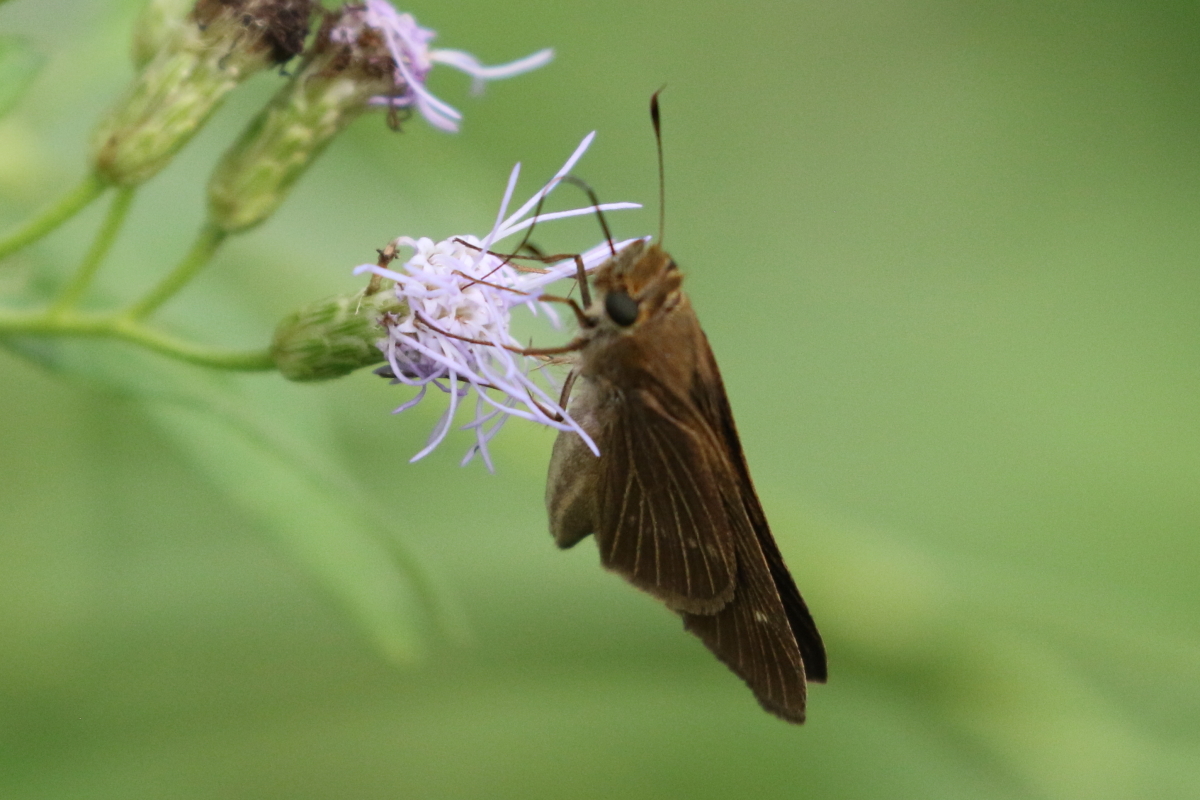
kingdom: Animalia
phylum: Arthropoda
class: Insecta
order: Lepidoptera
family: Hesperiidae
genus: Panoquina
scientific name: Panoquina ocola
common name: Ocola skipper
